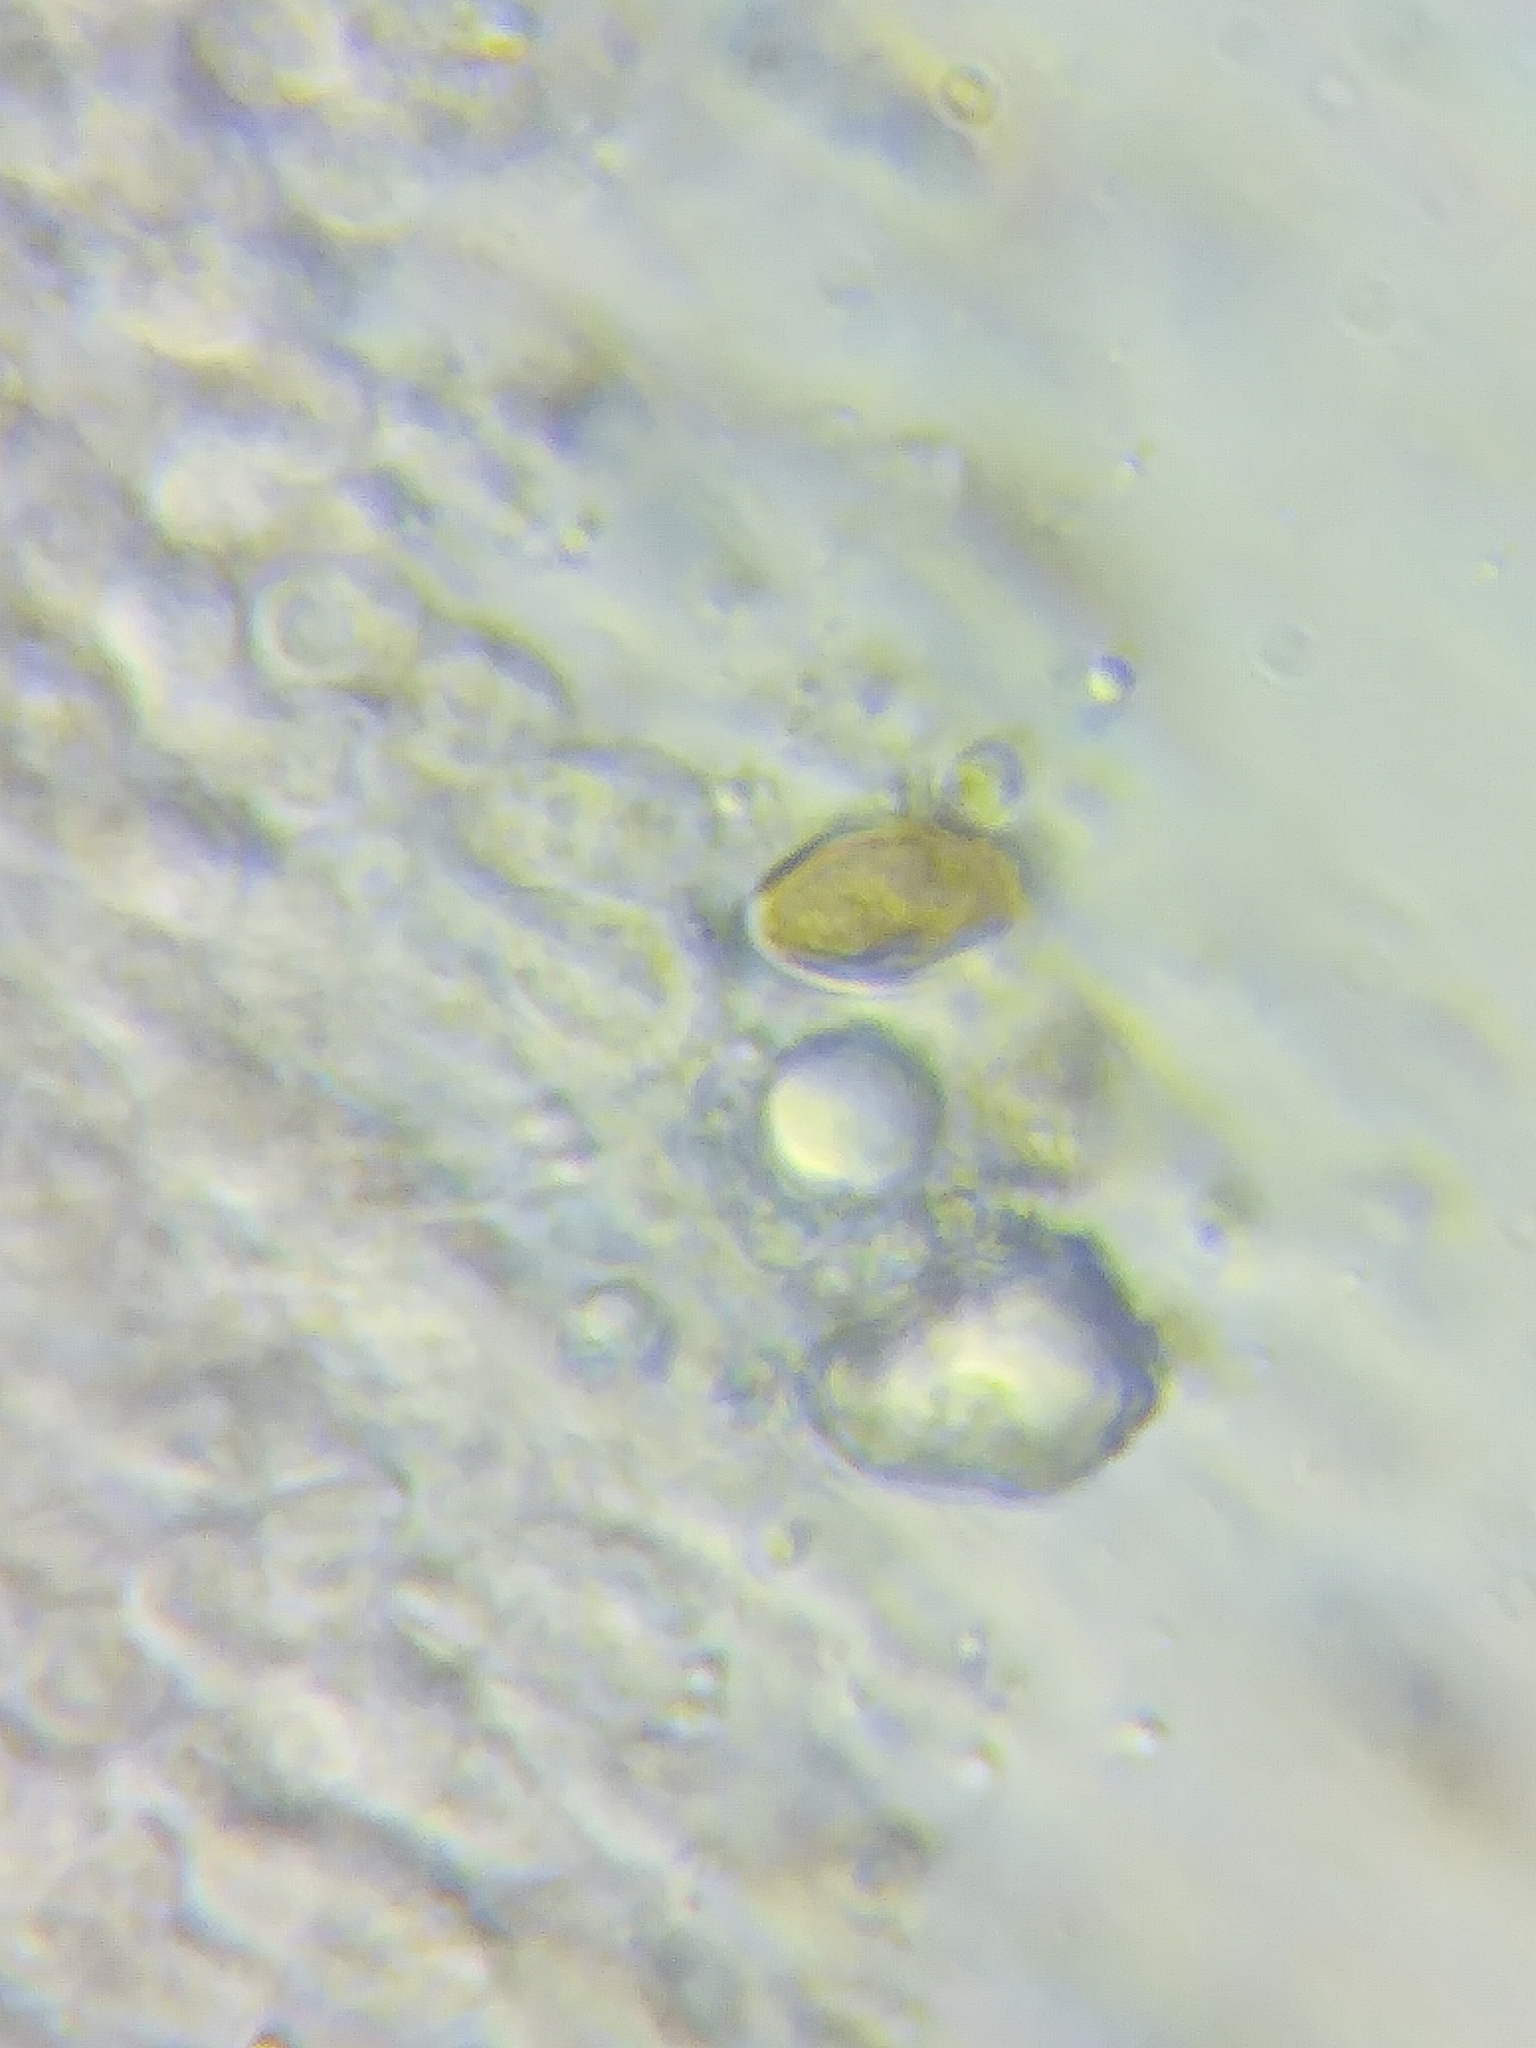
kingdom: Fungi
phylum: Basidiomycota
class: Agaricomycetes
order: Agaricales
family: Strophariaceae
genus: Agrocybe
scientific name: Agrocybe acericola
